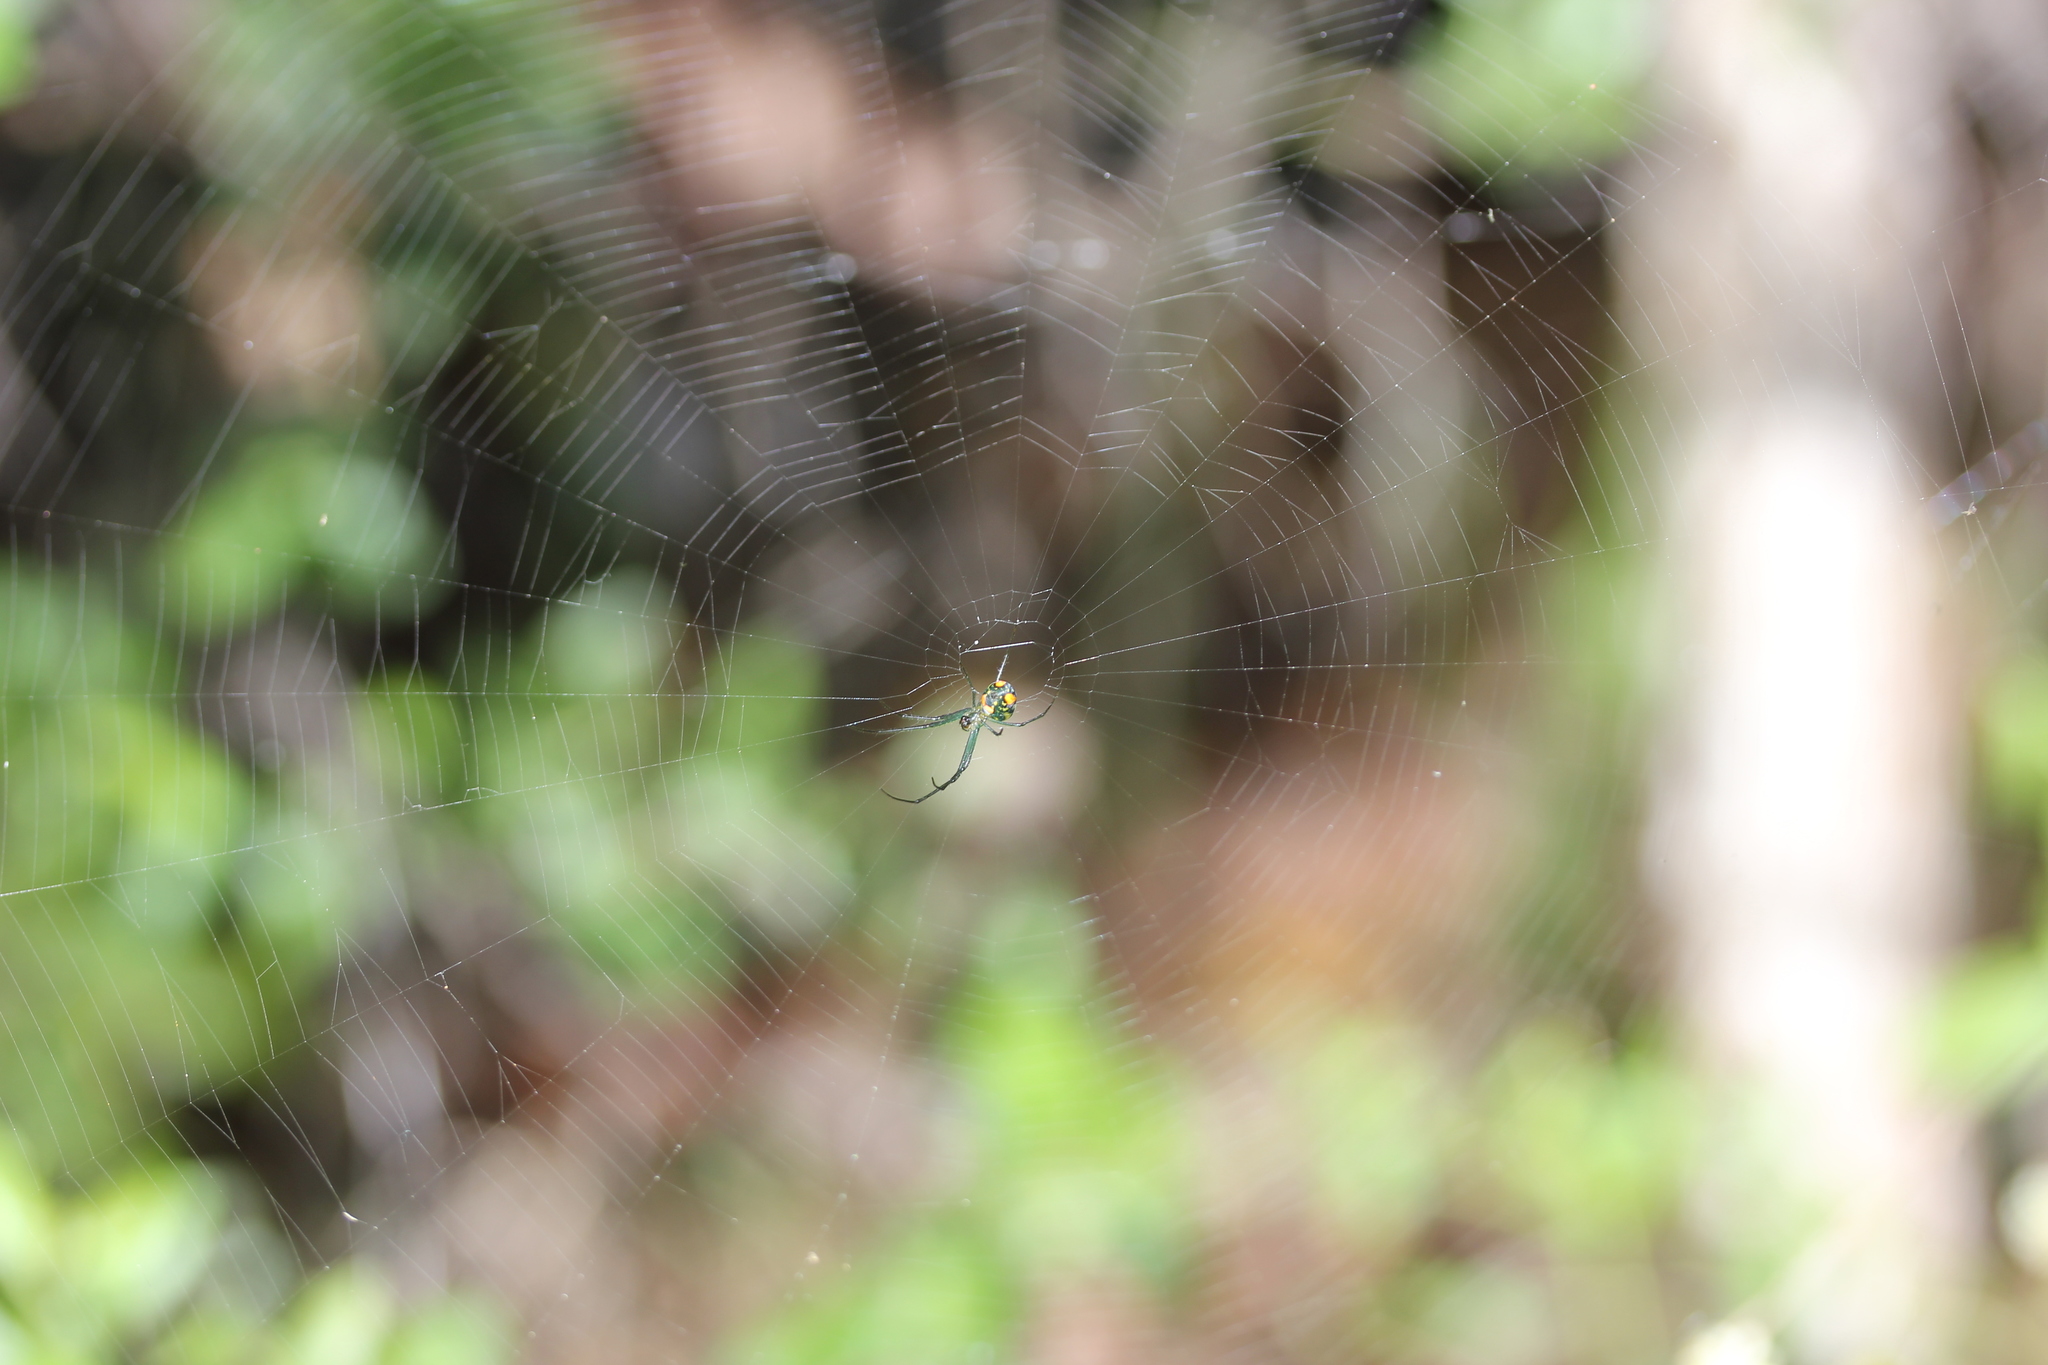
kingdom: Animalia
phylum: Arthropoda
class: Arachnida
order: Araneae
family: Tetragnathidae
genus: Leucauge
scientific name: Leucauge argyrobapta
